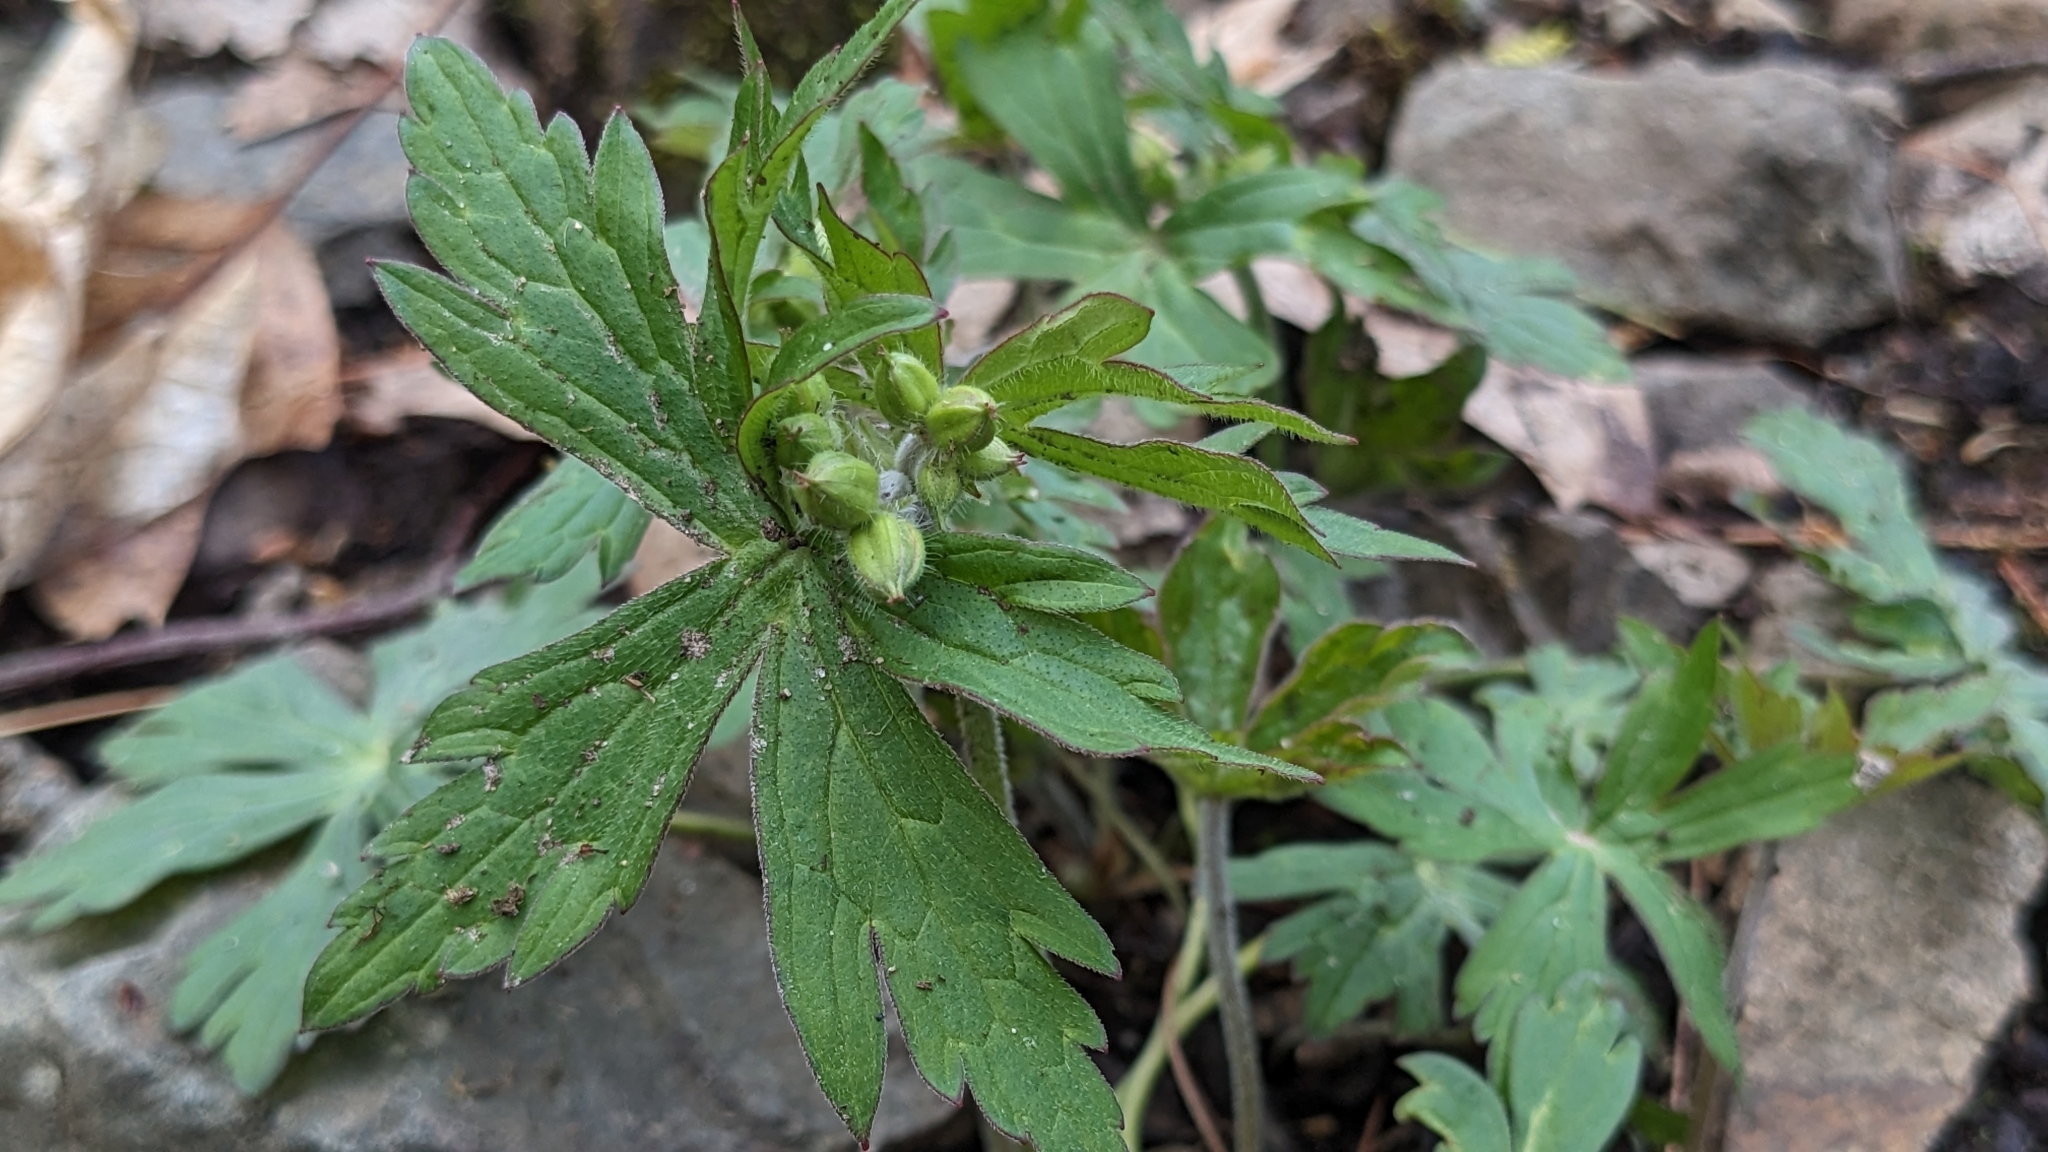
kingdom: Plantae
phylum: Tracheophyta
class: Magnoliopsida
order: Geraniales
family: Geraniaceae
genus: Geranium
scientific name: Geranium maculatum
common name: Spotted geranium
